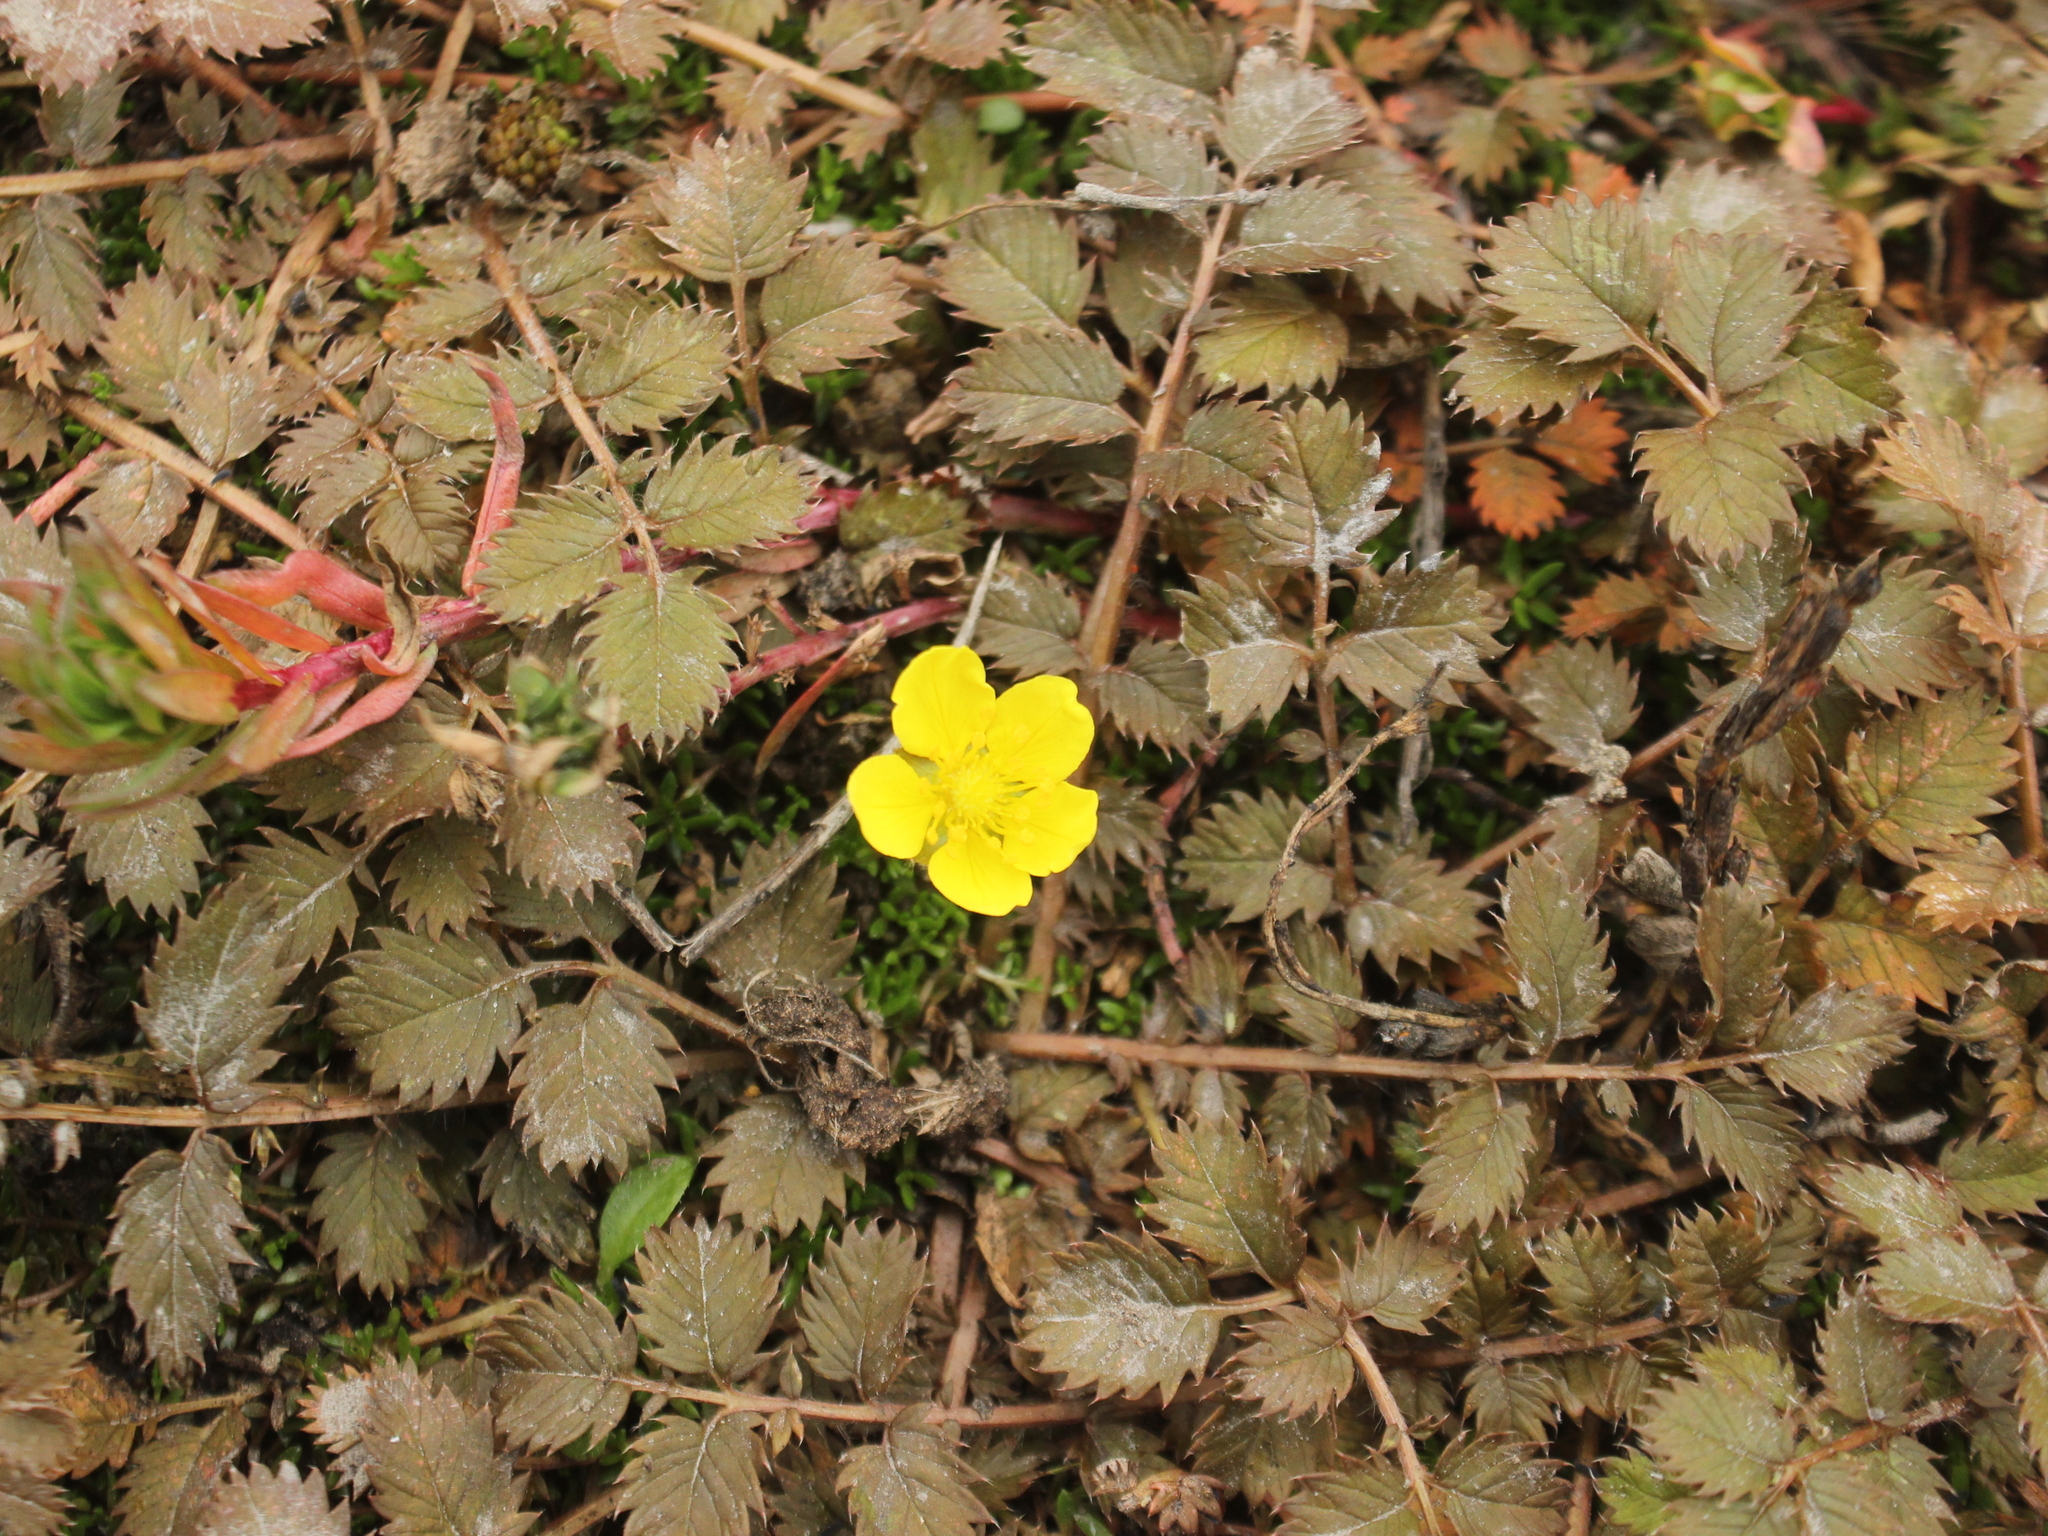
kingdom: Plantae
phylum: Tracheophyta
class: Magnoliopsida
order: Rosales
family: Rosaceae
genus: Argentina
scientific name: Argentina anserinoides
